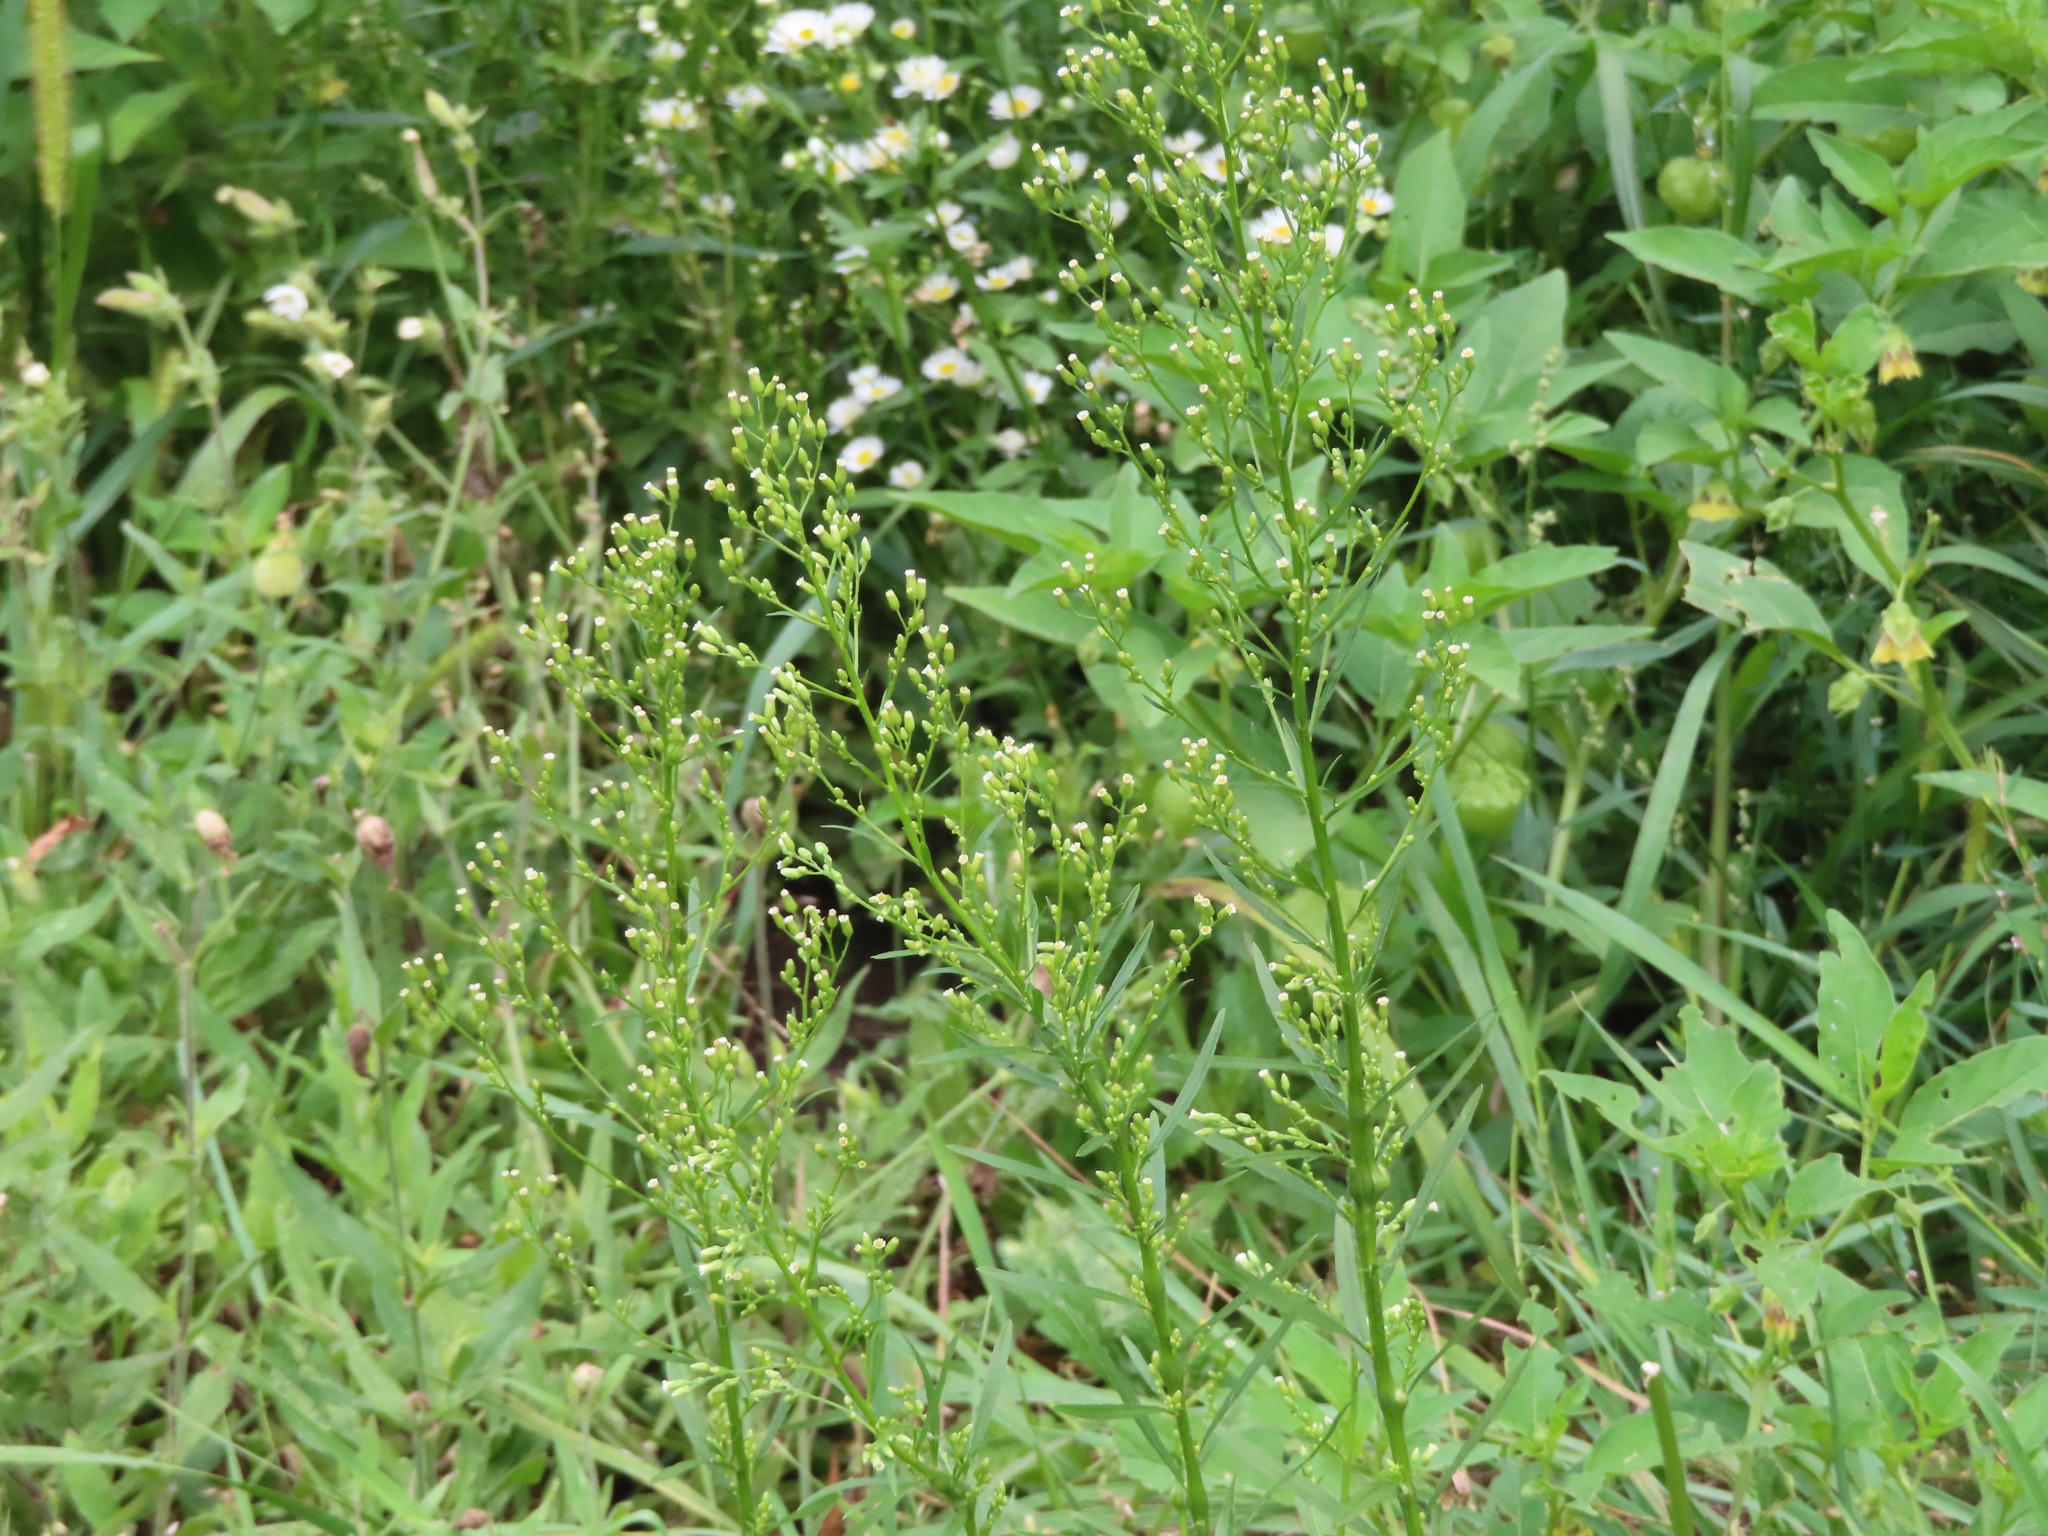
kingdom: Plantae
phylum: Tracheophyta
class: Magnoliopsida
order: Asterales
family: Asteraceae
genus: Erigeron
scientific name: Erigeron canadensis
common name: Canadian fleabane
